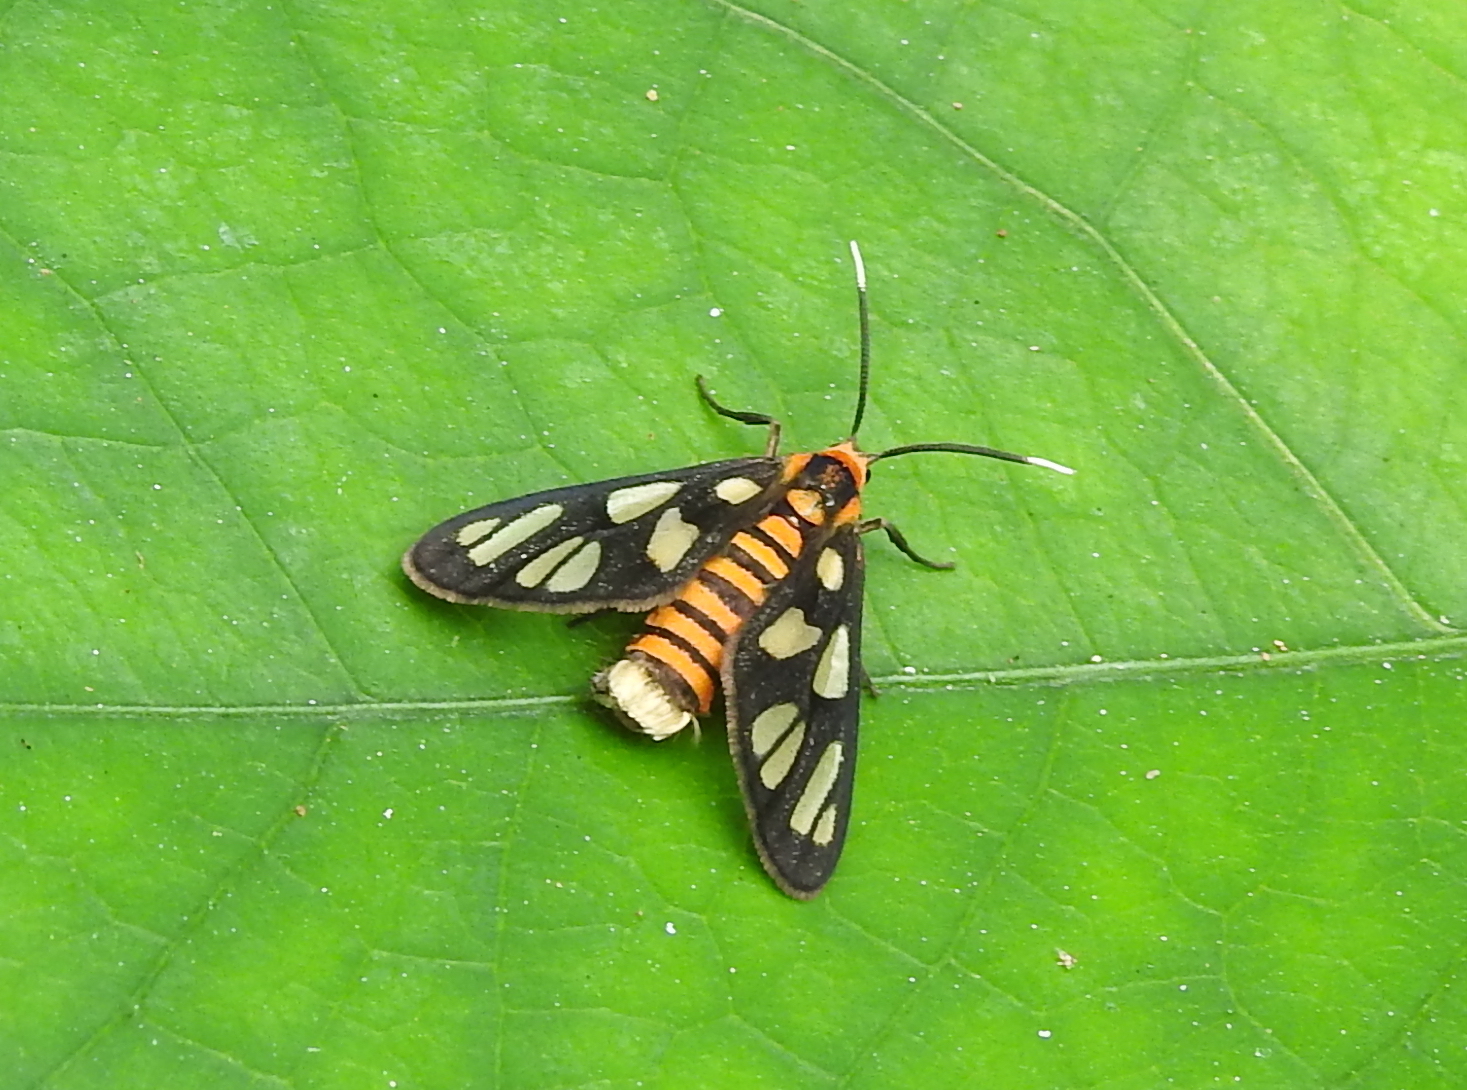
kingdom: Animalia
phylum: Arthropoda
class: Insecta
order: Lepidoptera
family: Erebidae
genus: Amata
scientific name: Amata huebneri
